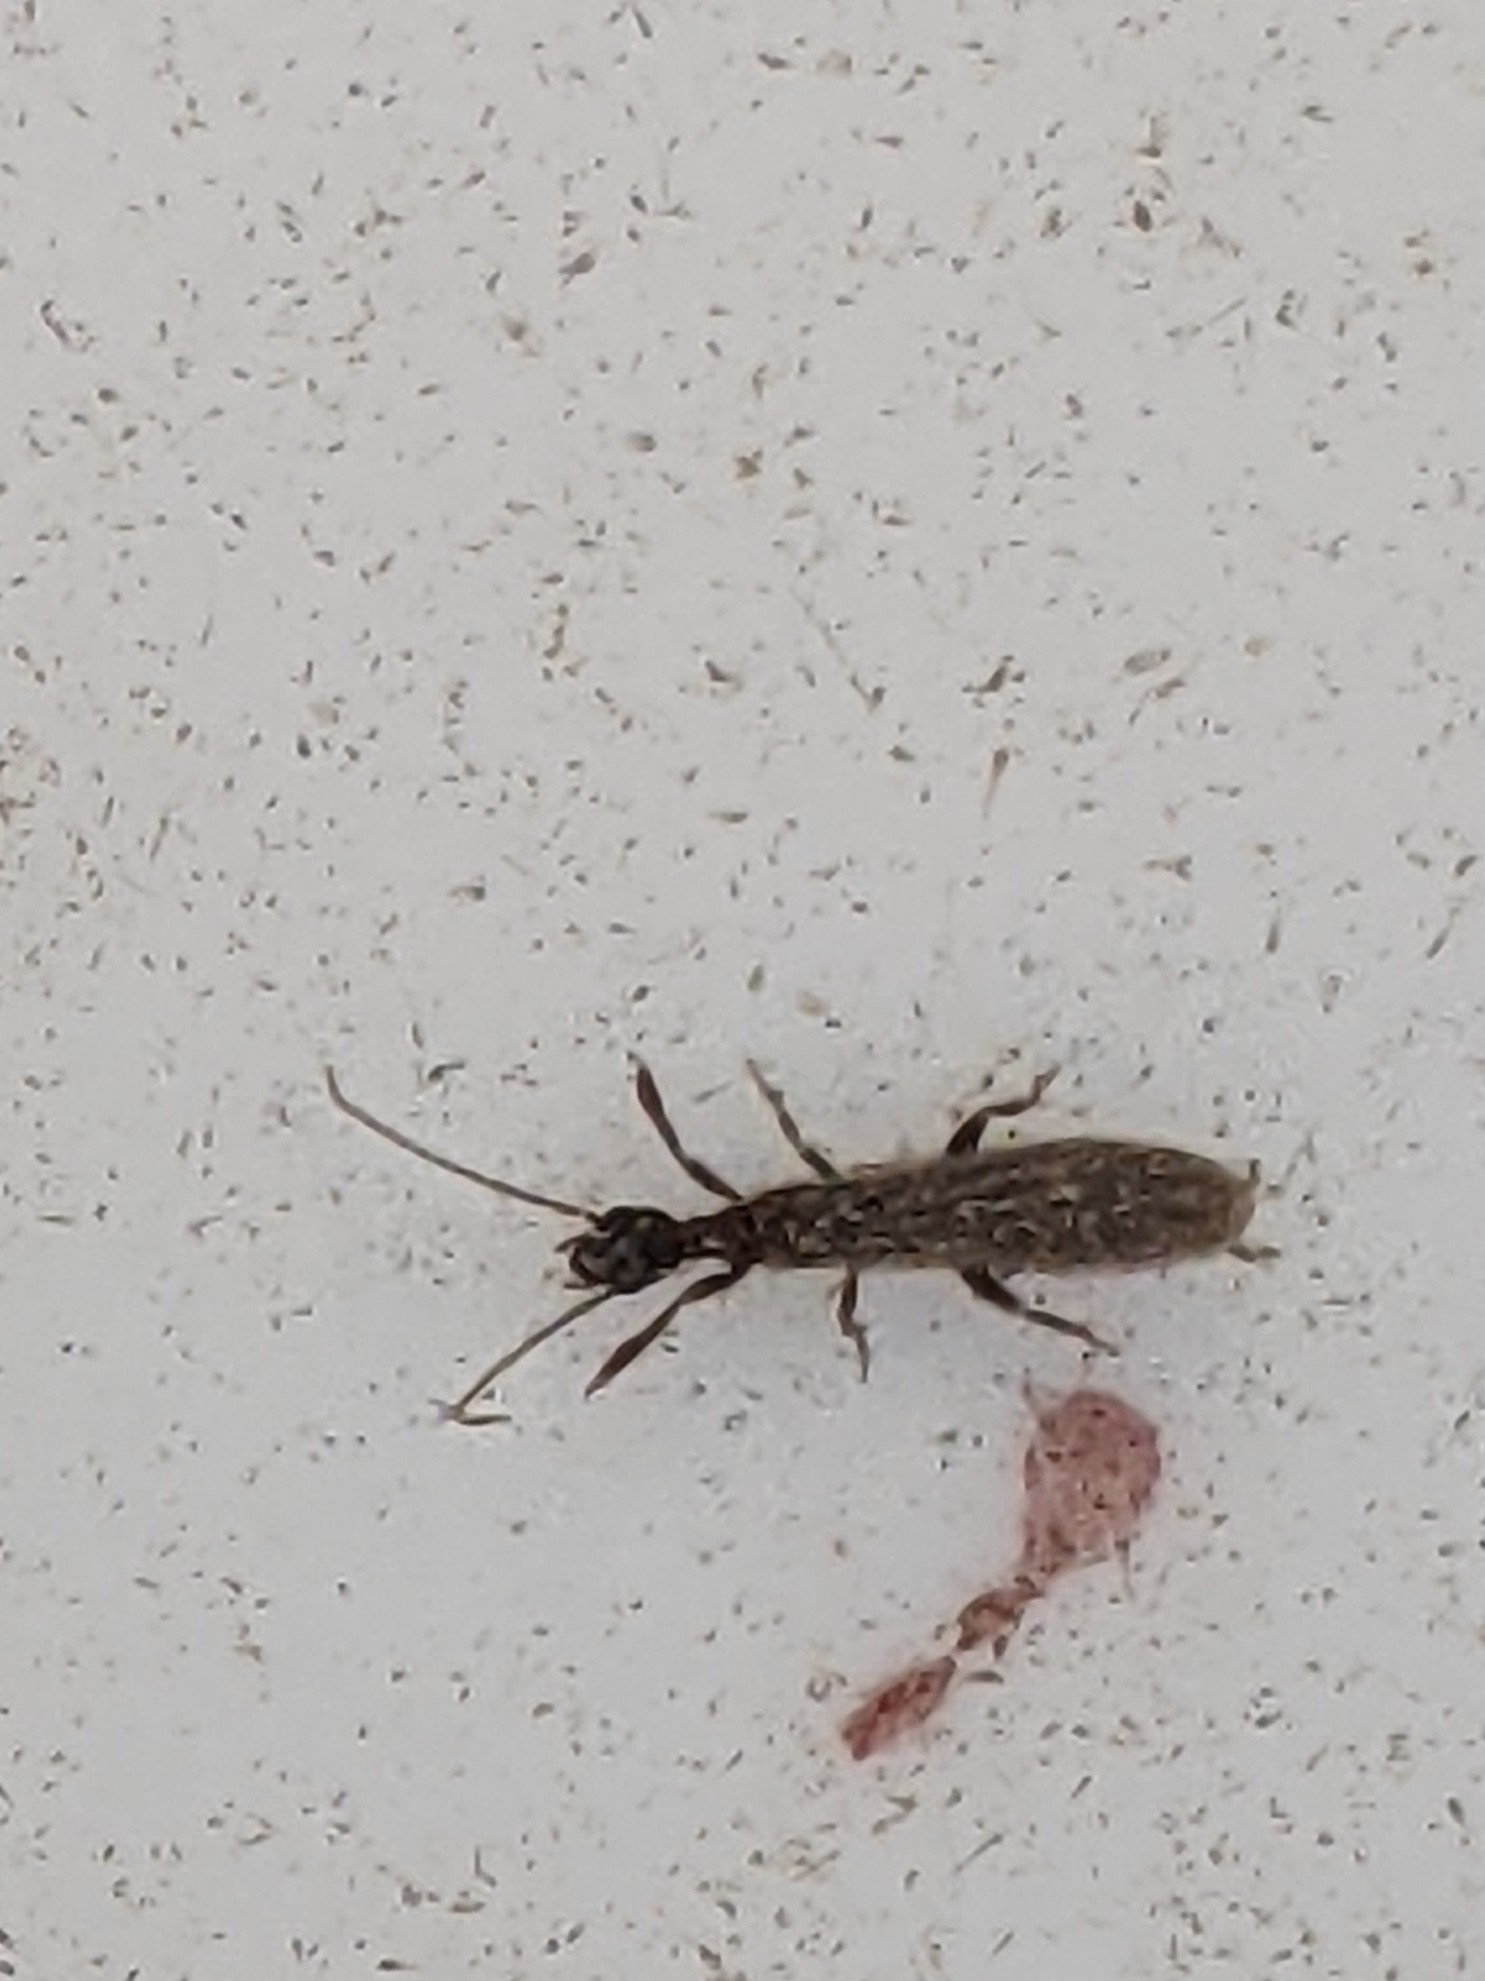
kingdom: Animalia
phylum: Arthropoda
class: Insecta
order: Embioptera
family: Oligotomidae
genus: Oligotoma
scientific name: Oligotoma nigra
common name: Black webspinner
